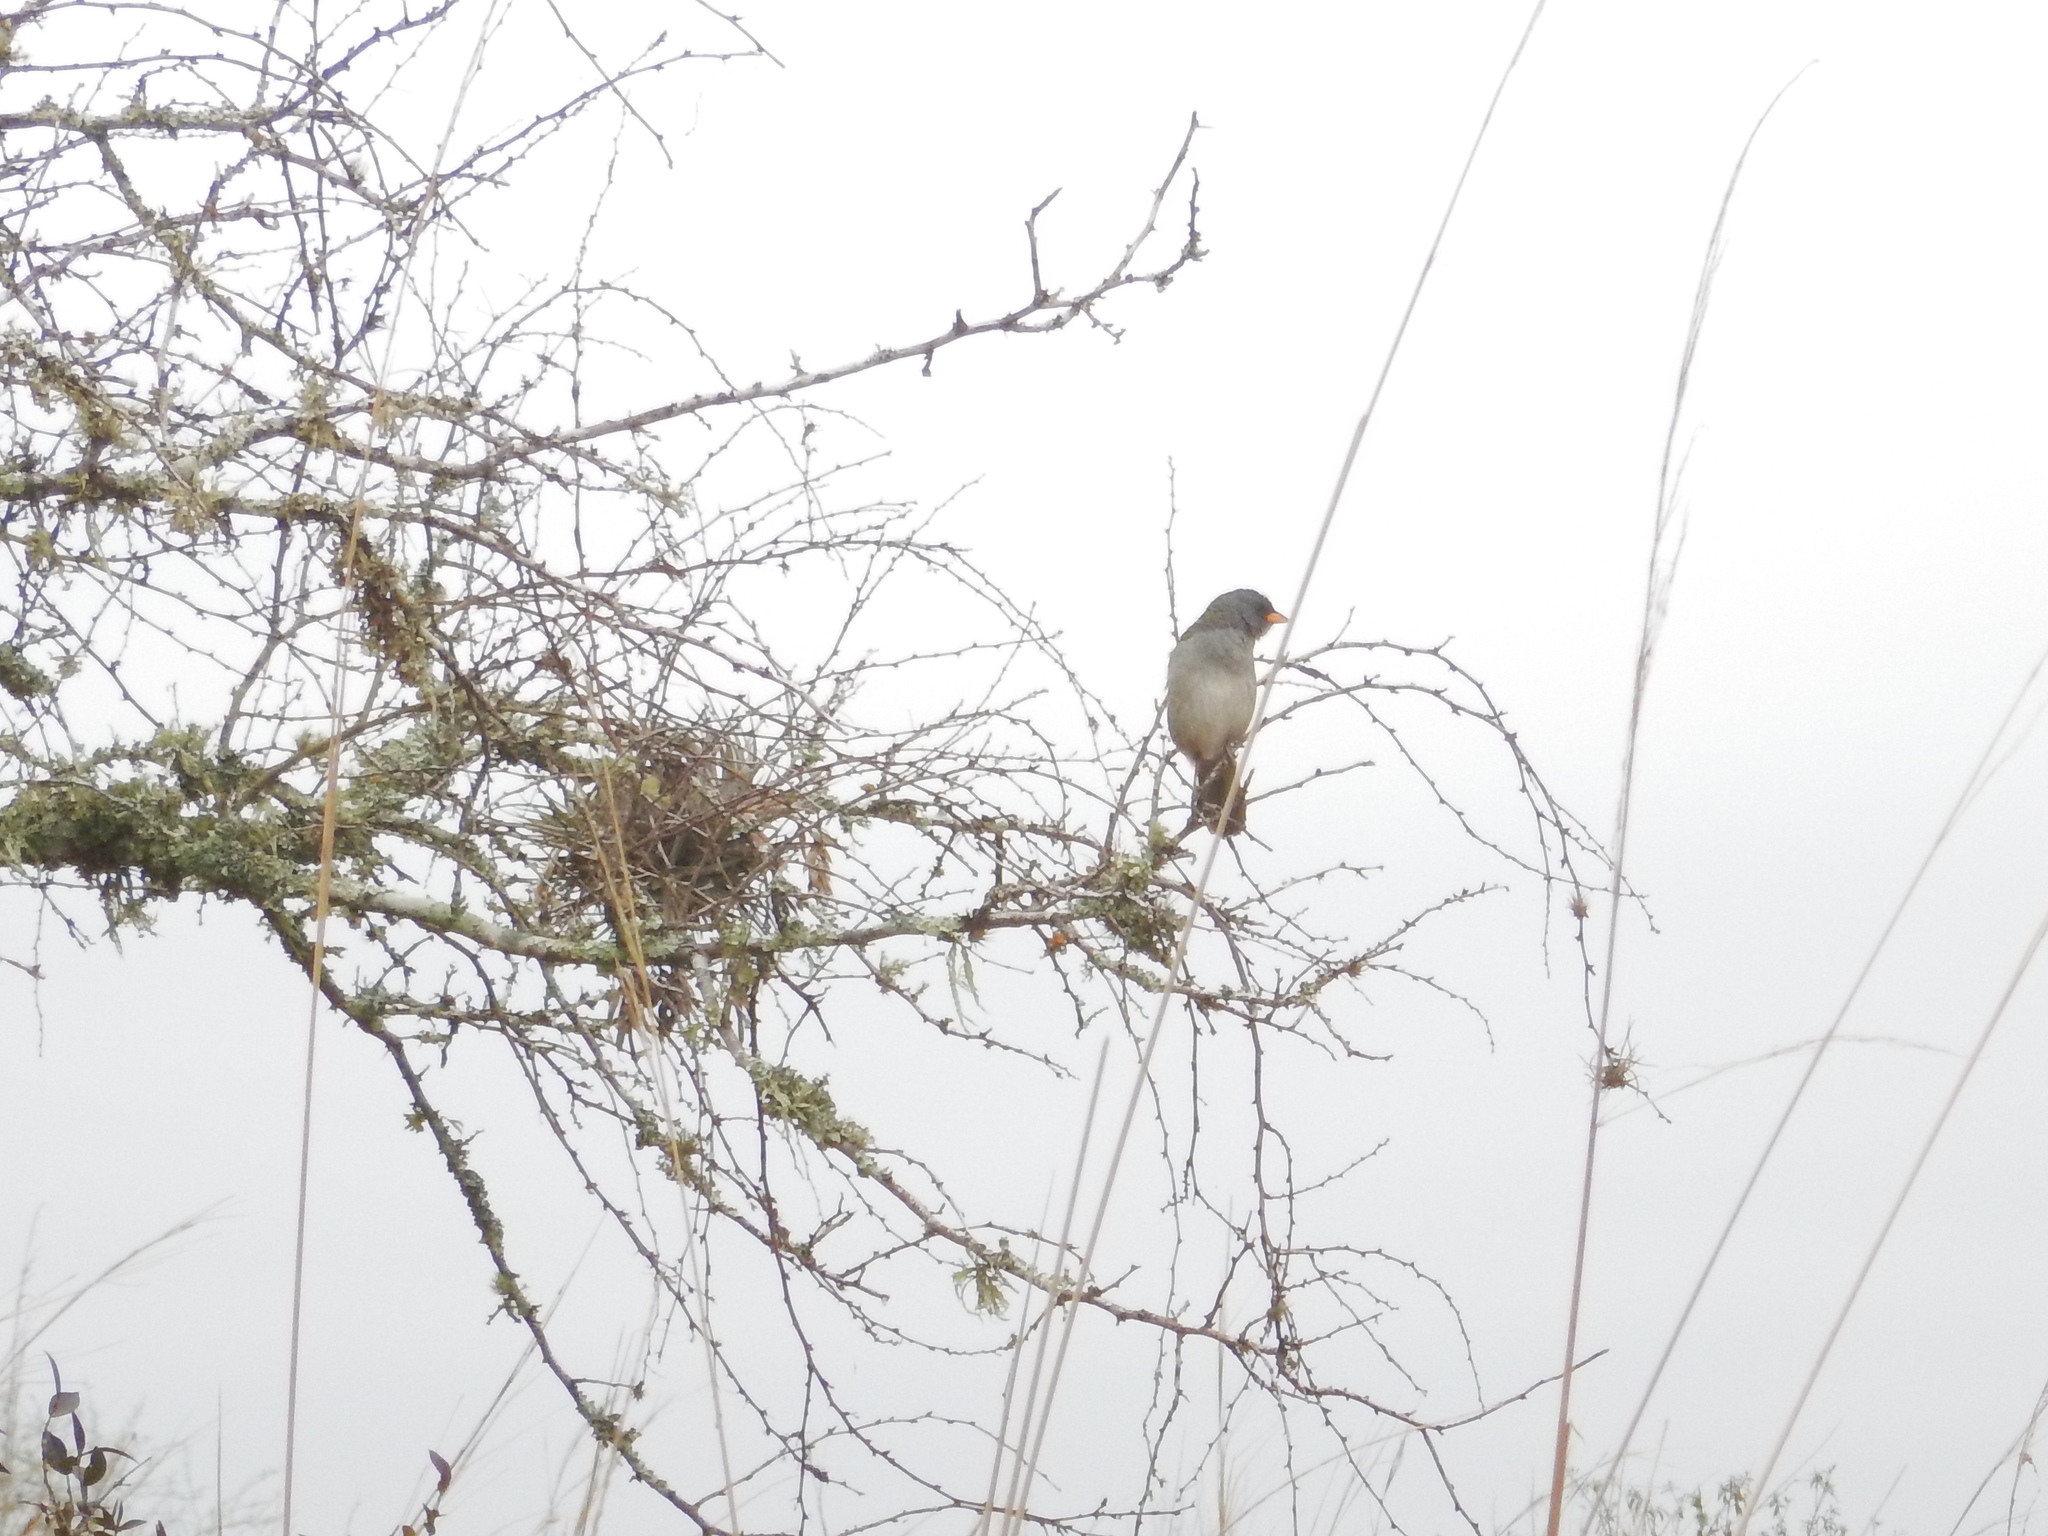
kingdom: Animalia
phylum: Chordata
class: Aves
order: Passeriformes
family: Thraupidae
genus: Embernagra
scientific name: Embernagra platensis
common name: Pampa finch
